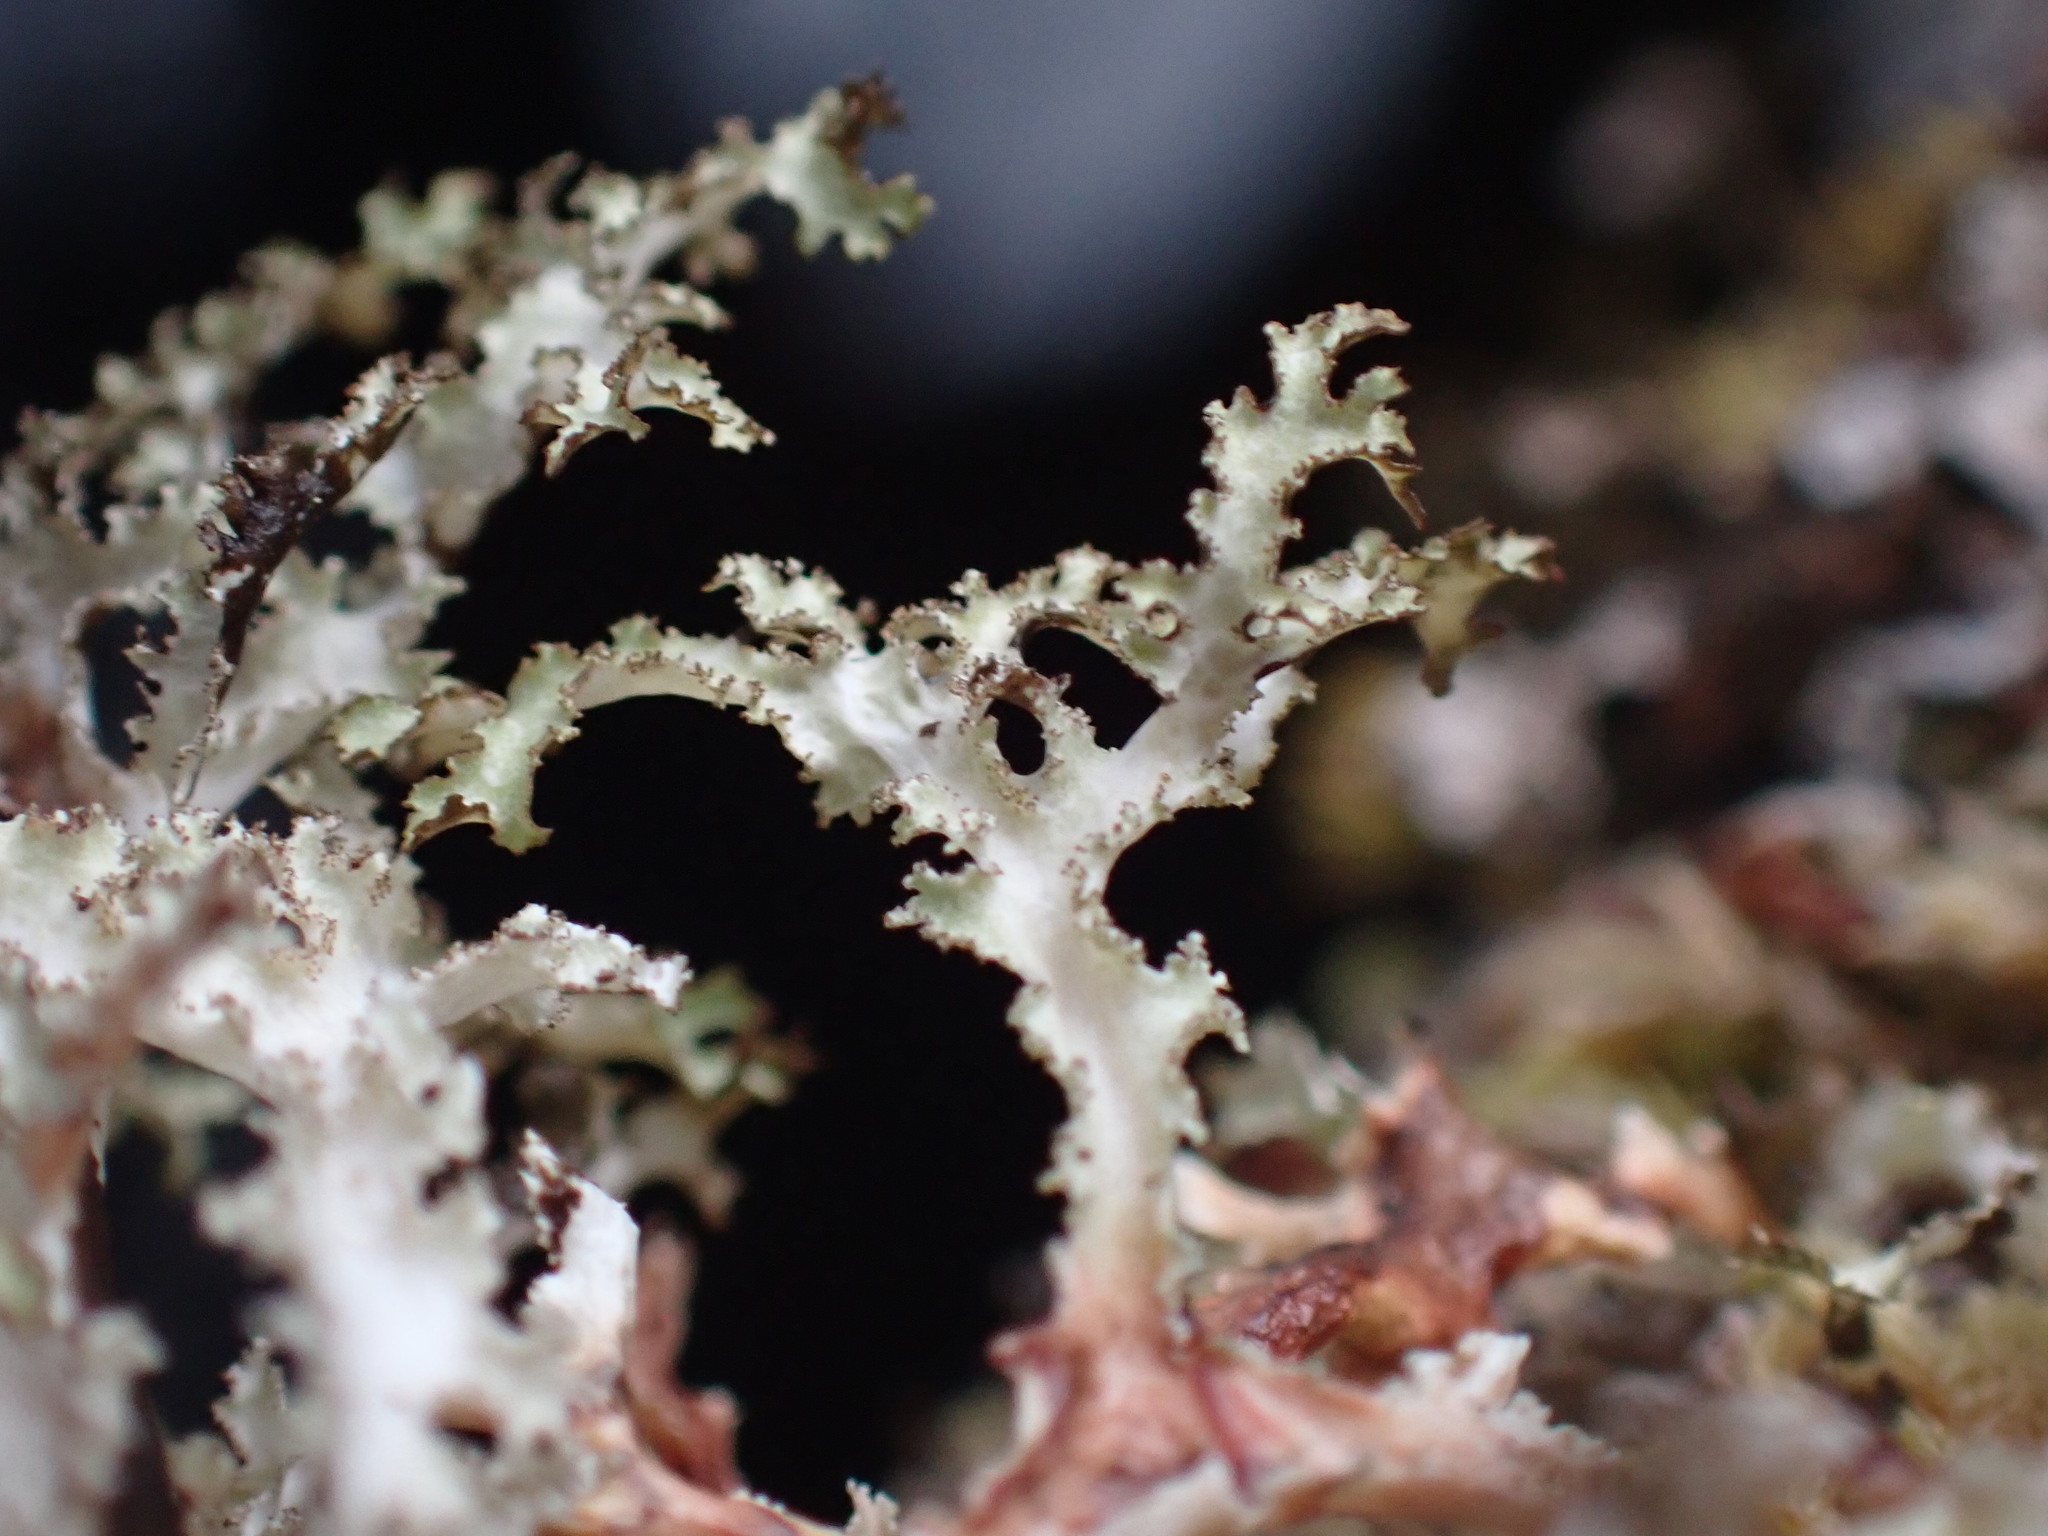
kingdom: Fungi
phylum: Ascomycota
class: Lecanoromycetes
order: Lecanorales
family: Parmeliaceae
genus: Platismatia
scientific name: Platismatia herrei
